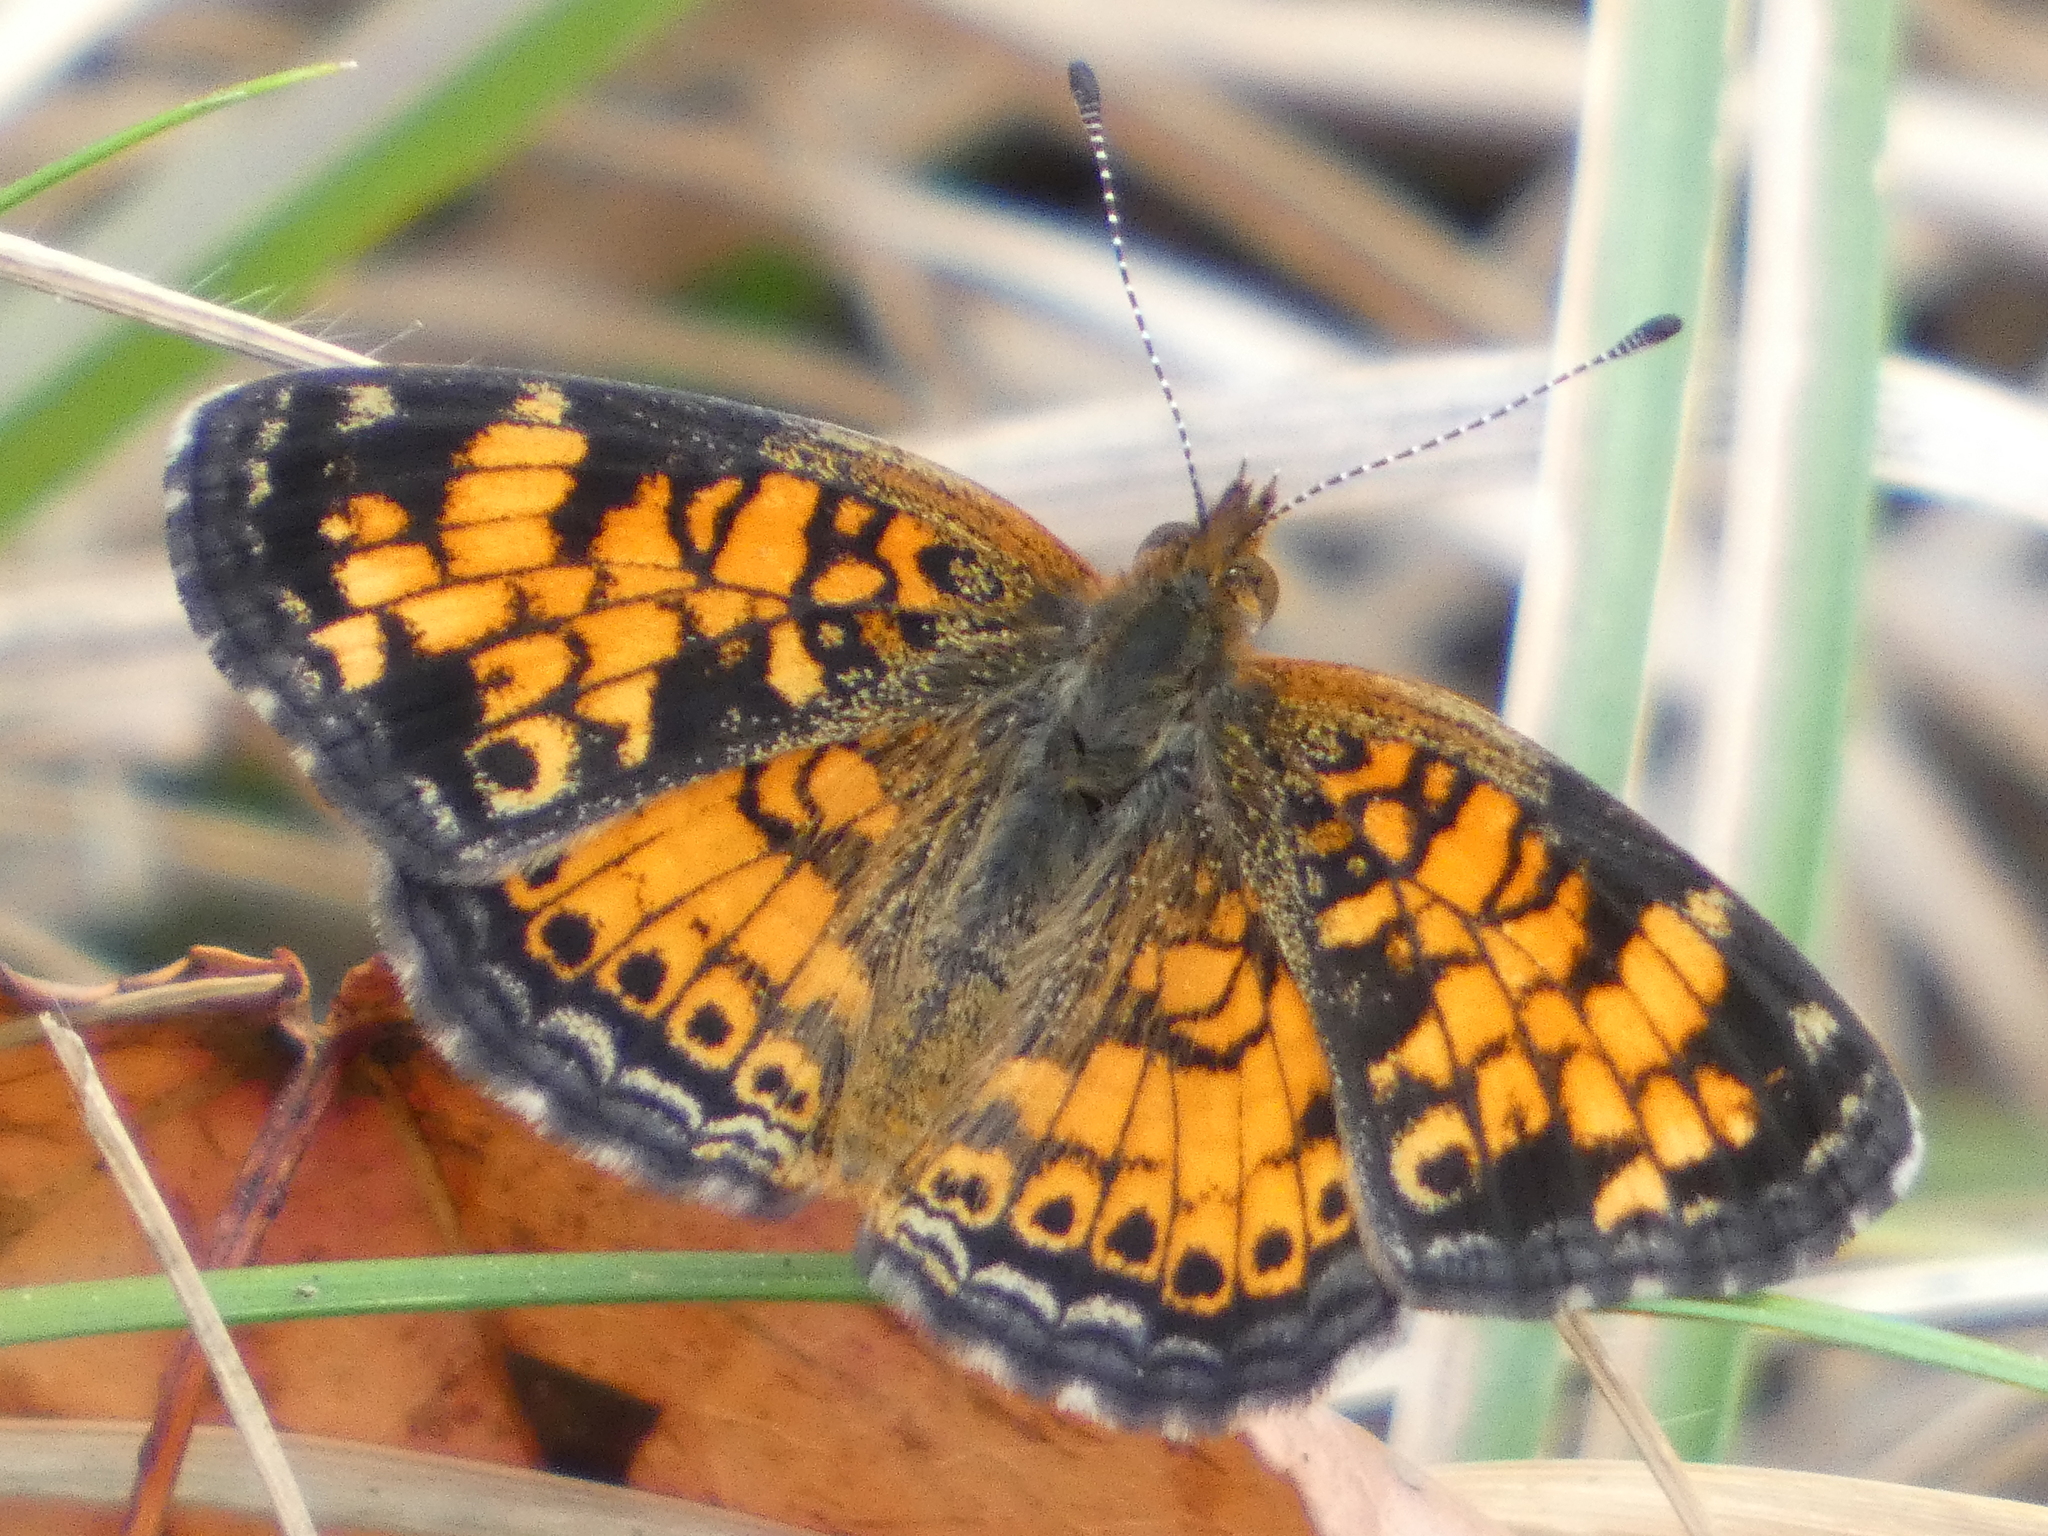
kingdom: Animalia
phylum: Arthropoda
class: Insecta
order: Lepidoptera
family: Nymphalidae
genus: Phyciodes
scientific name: Phyciodes tharos
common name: Pearl crescent
